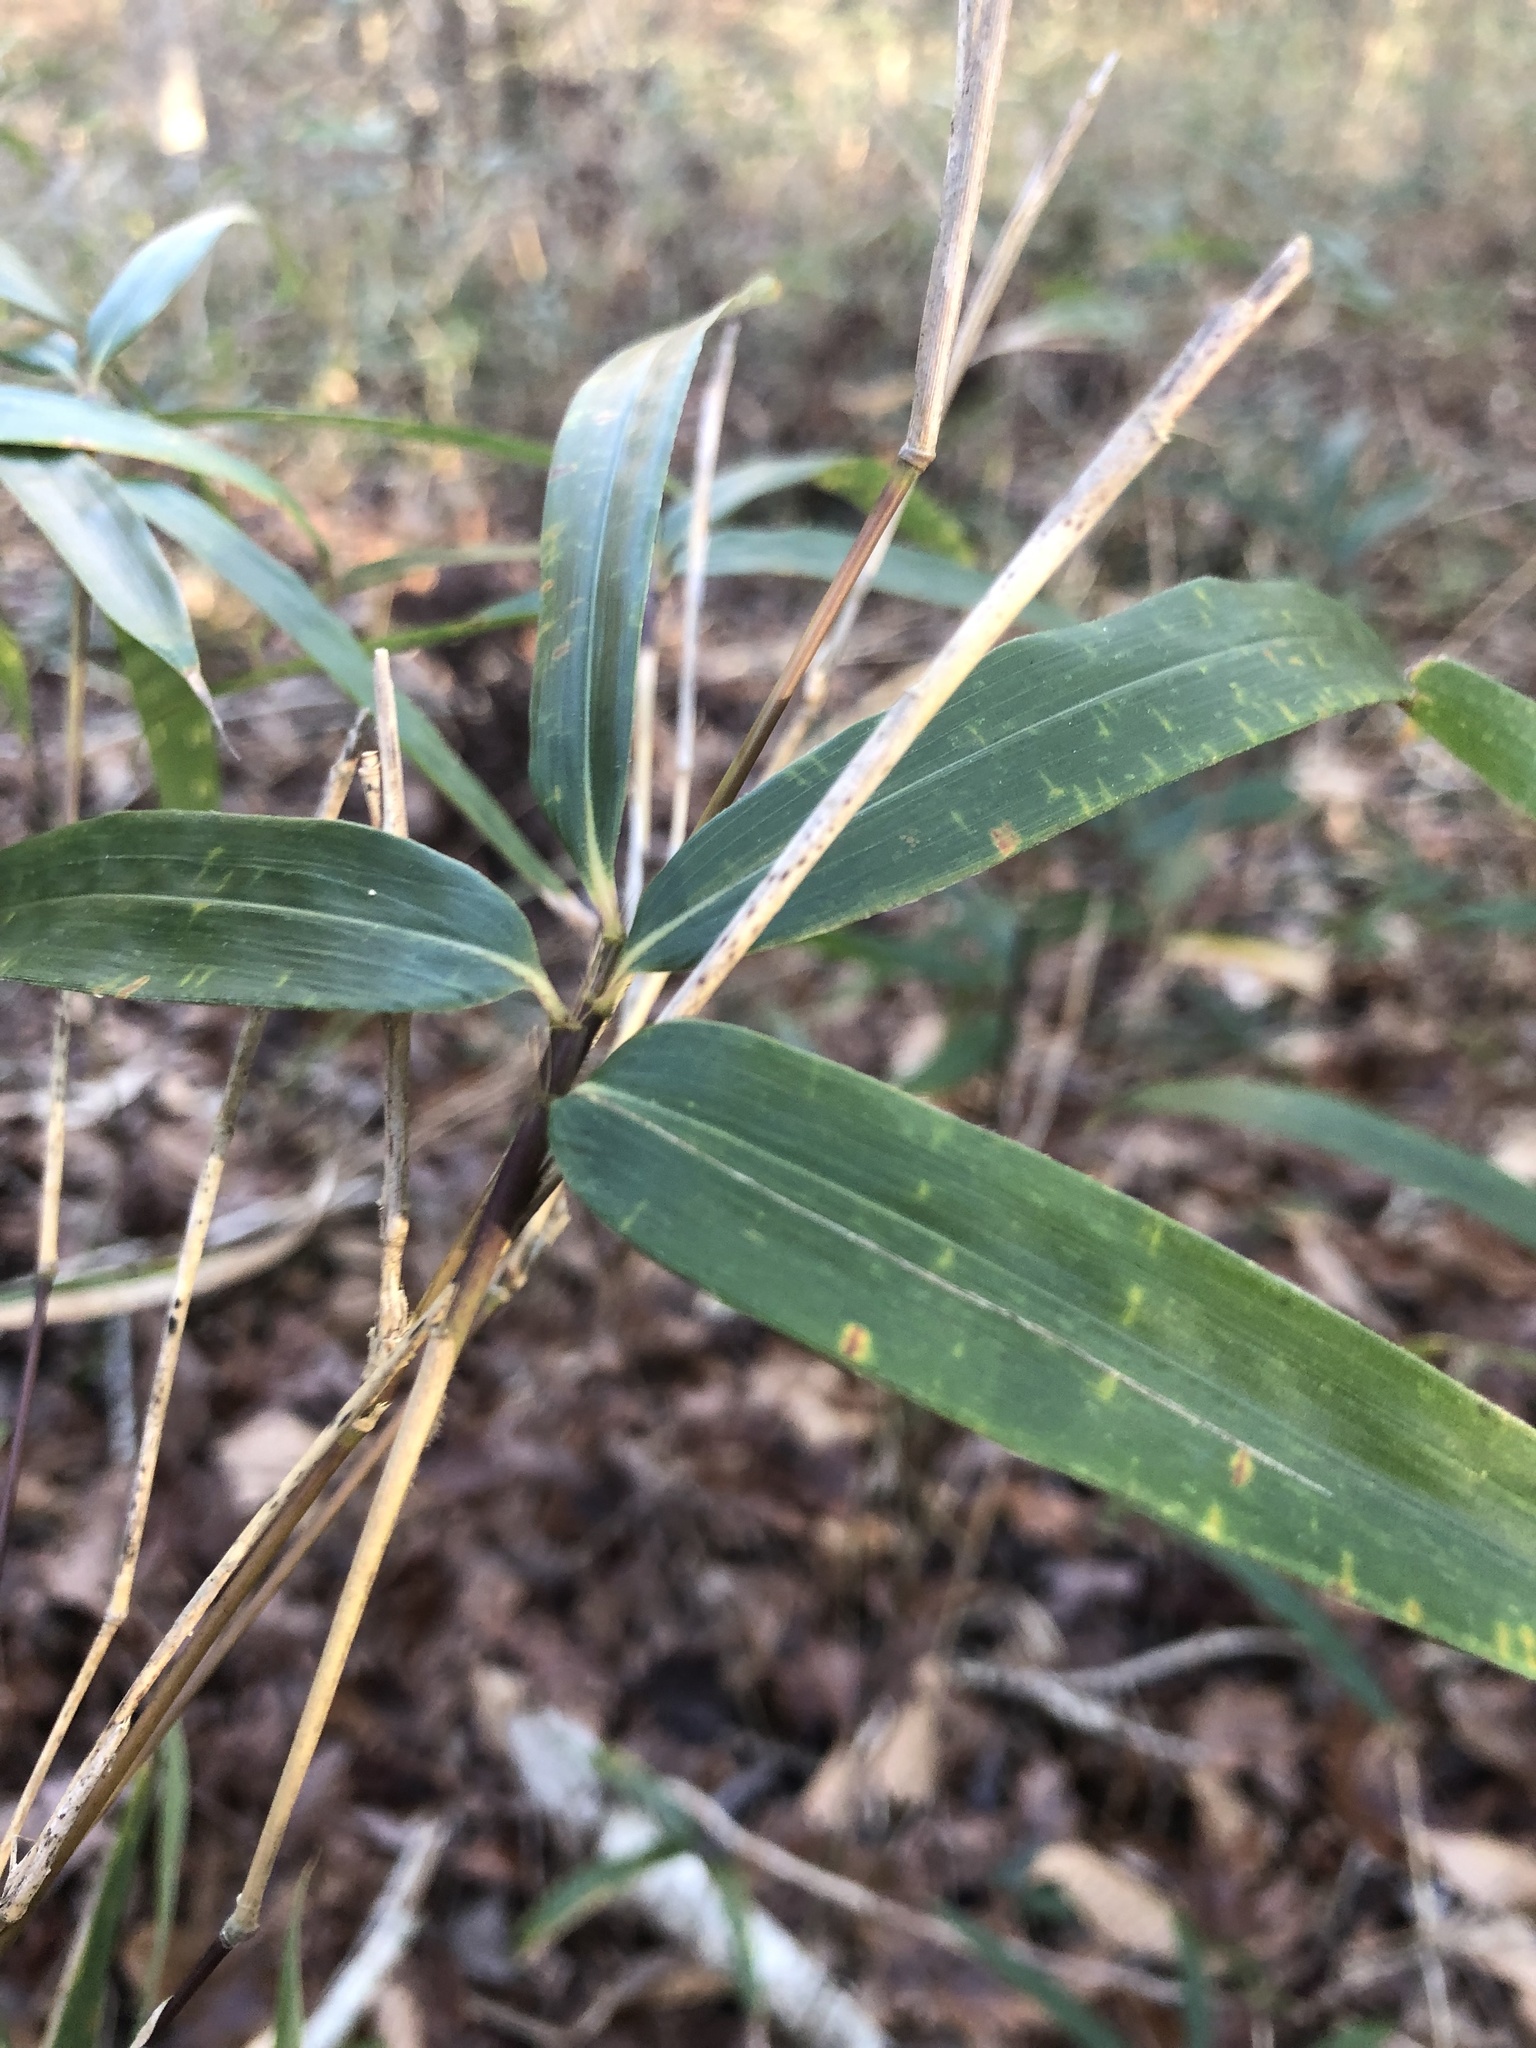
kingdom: Plantae
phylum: Tracheophyta
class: Liliopsida
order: Poales
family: Poaceae
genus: Arundinaria
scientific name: Arundinaria gigantea
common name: Giant cane
